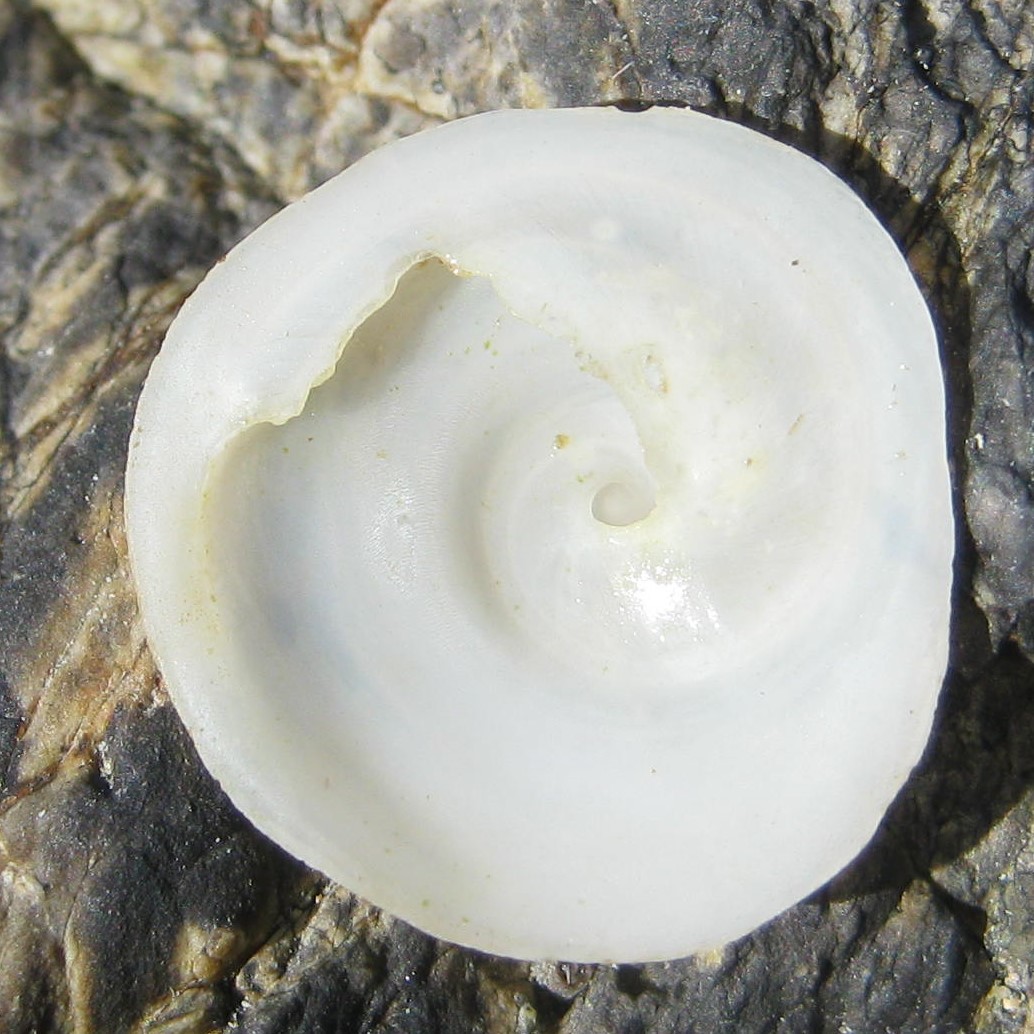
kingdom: Animalia
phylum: Mollusca
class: Gastropoda
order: Littorinimorpha
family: Calyptraeidae
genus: Sigapatella
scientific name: Sigapatella tenuis
